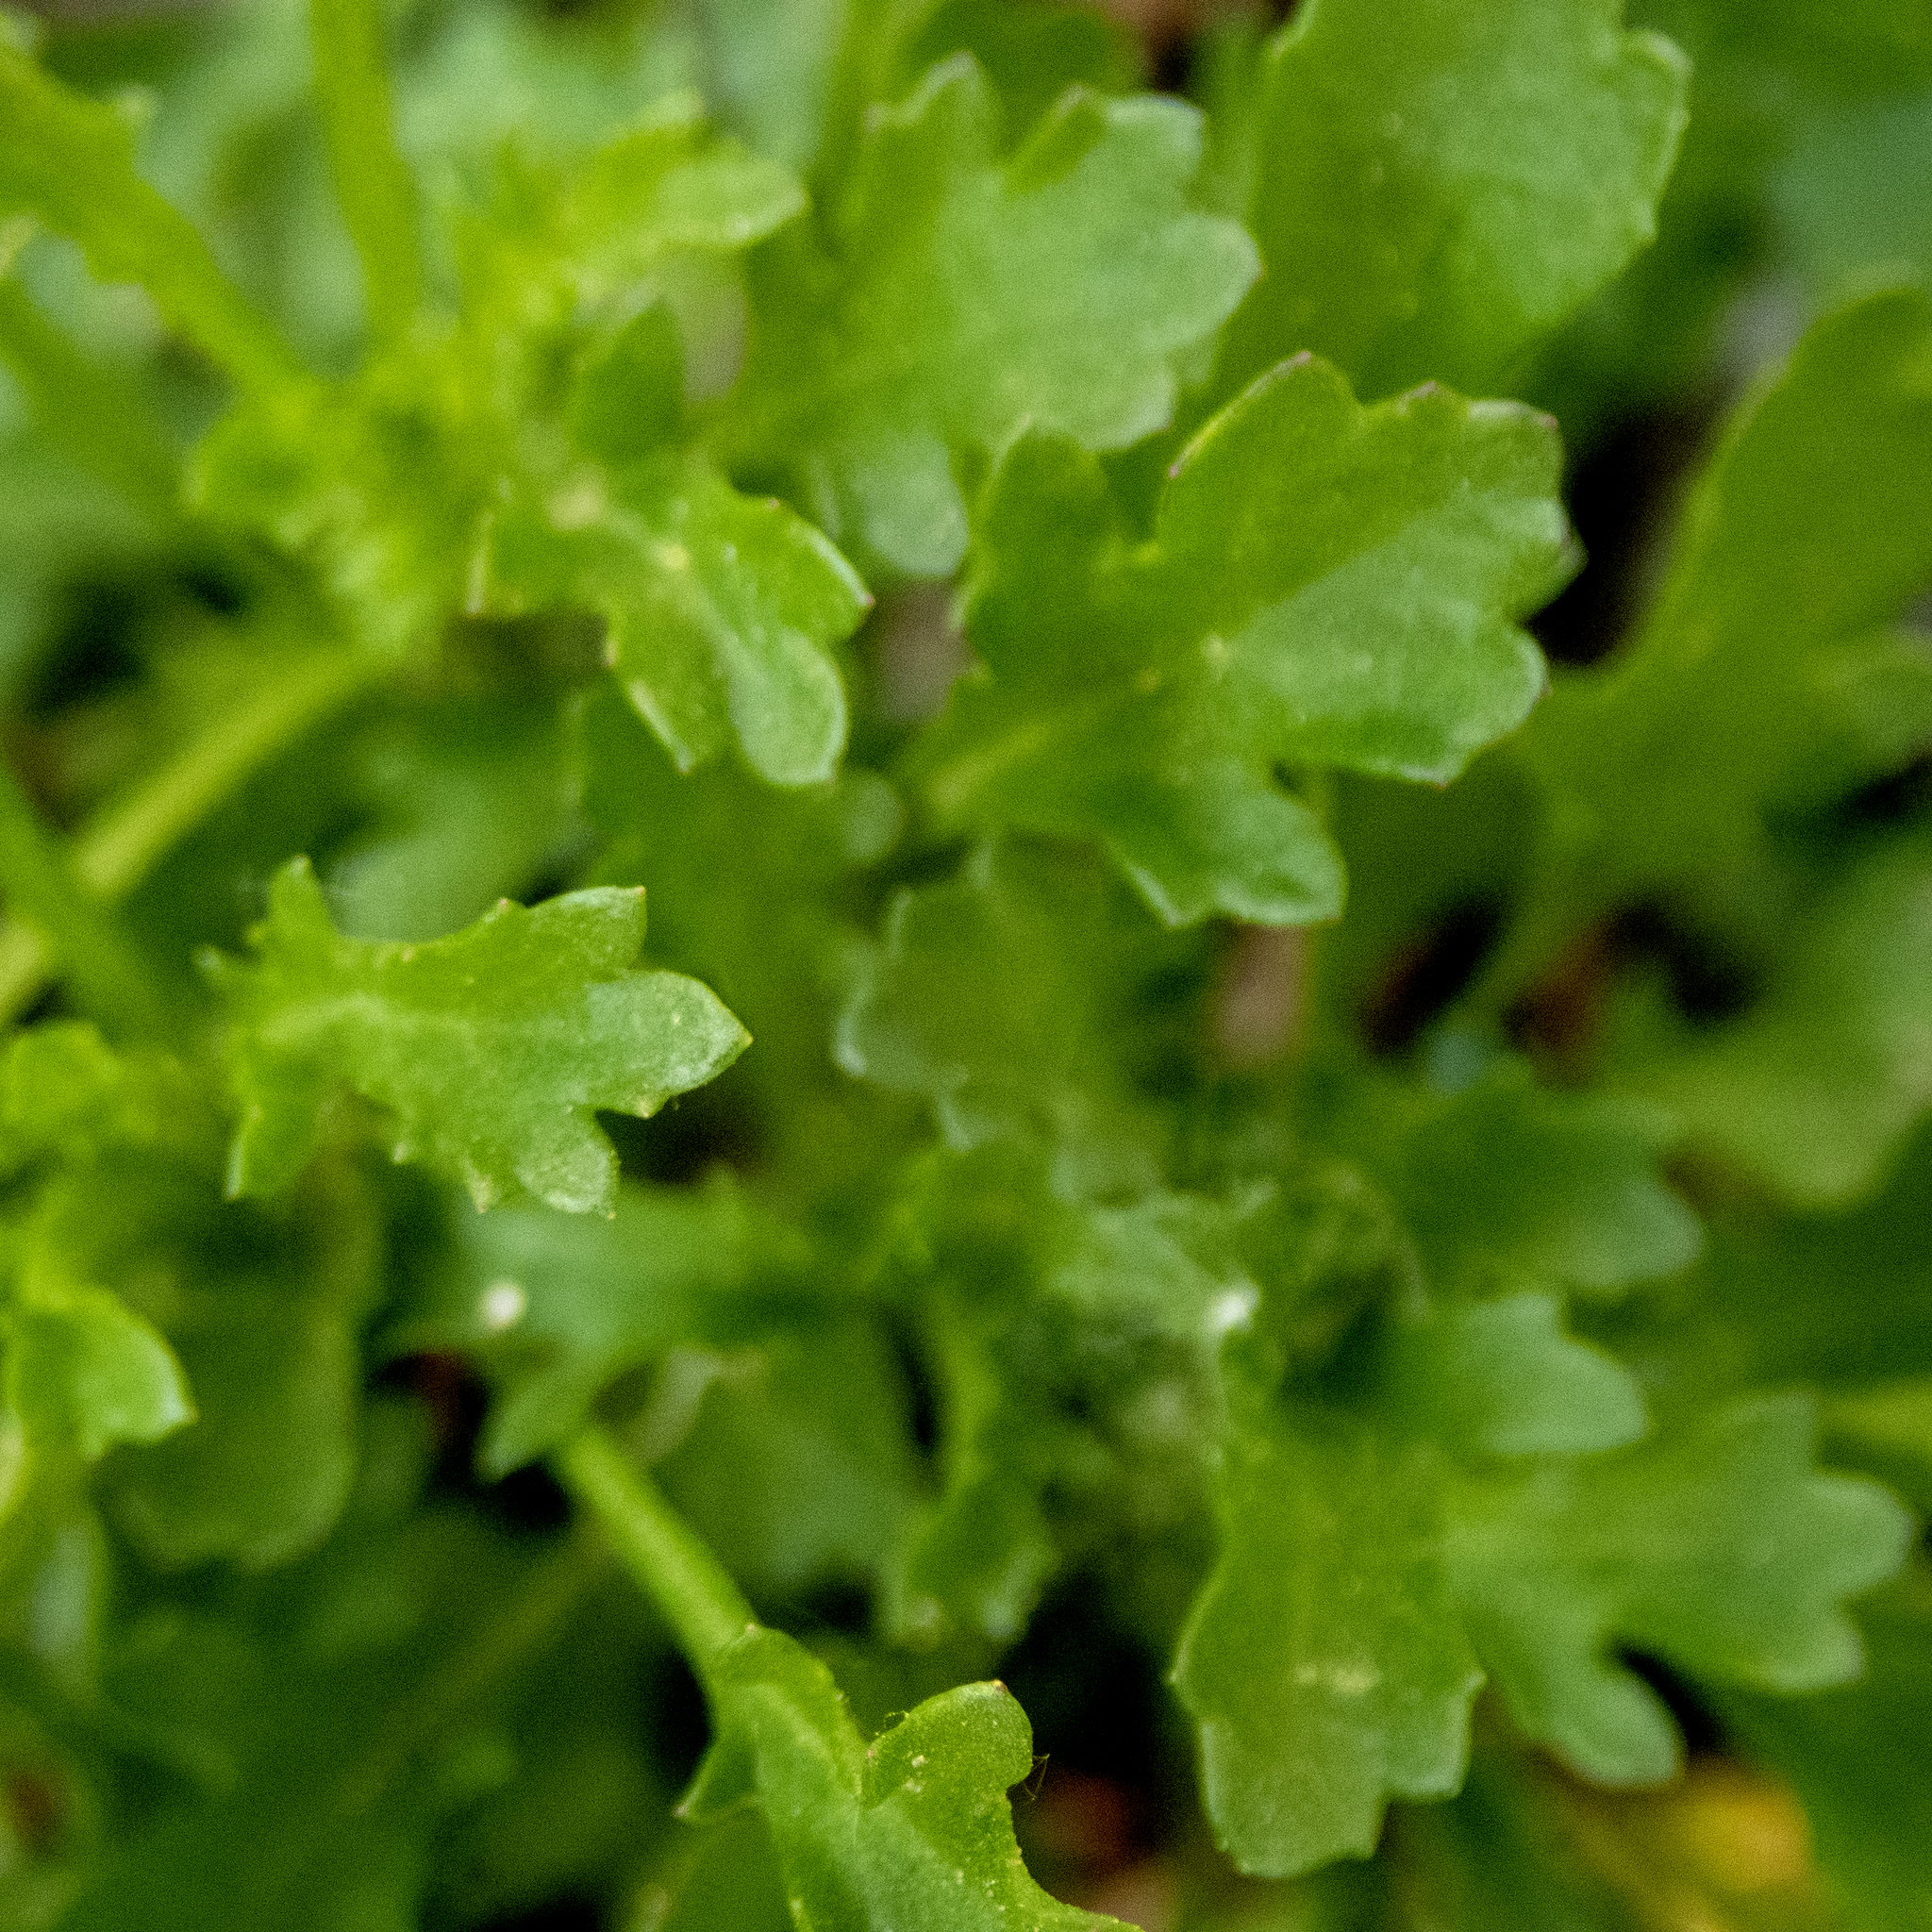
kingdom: Plantae
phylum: Tracheophyta
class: Magnoliopsida
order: Asterales
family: Asteraceae
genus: Leucanthemum
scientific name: Leucanthemum vulgare
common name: Oxeye daisy
